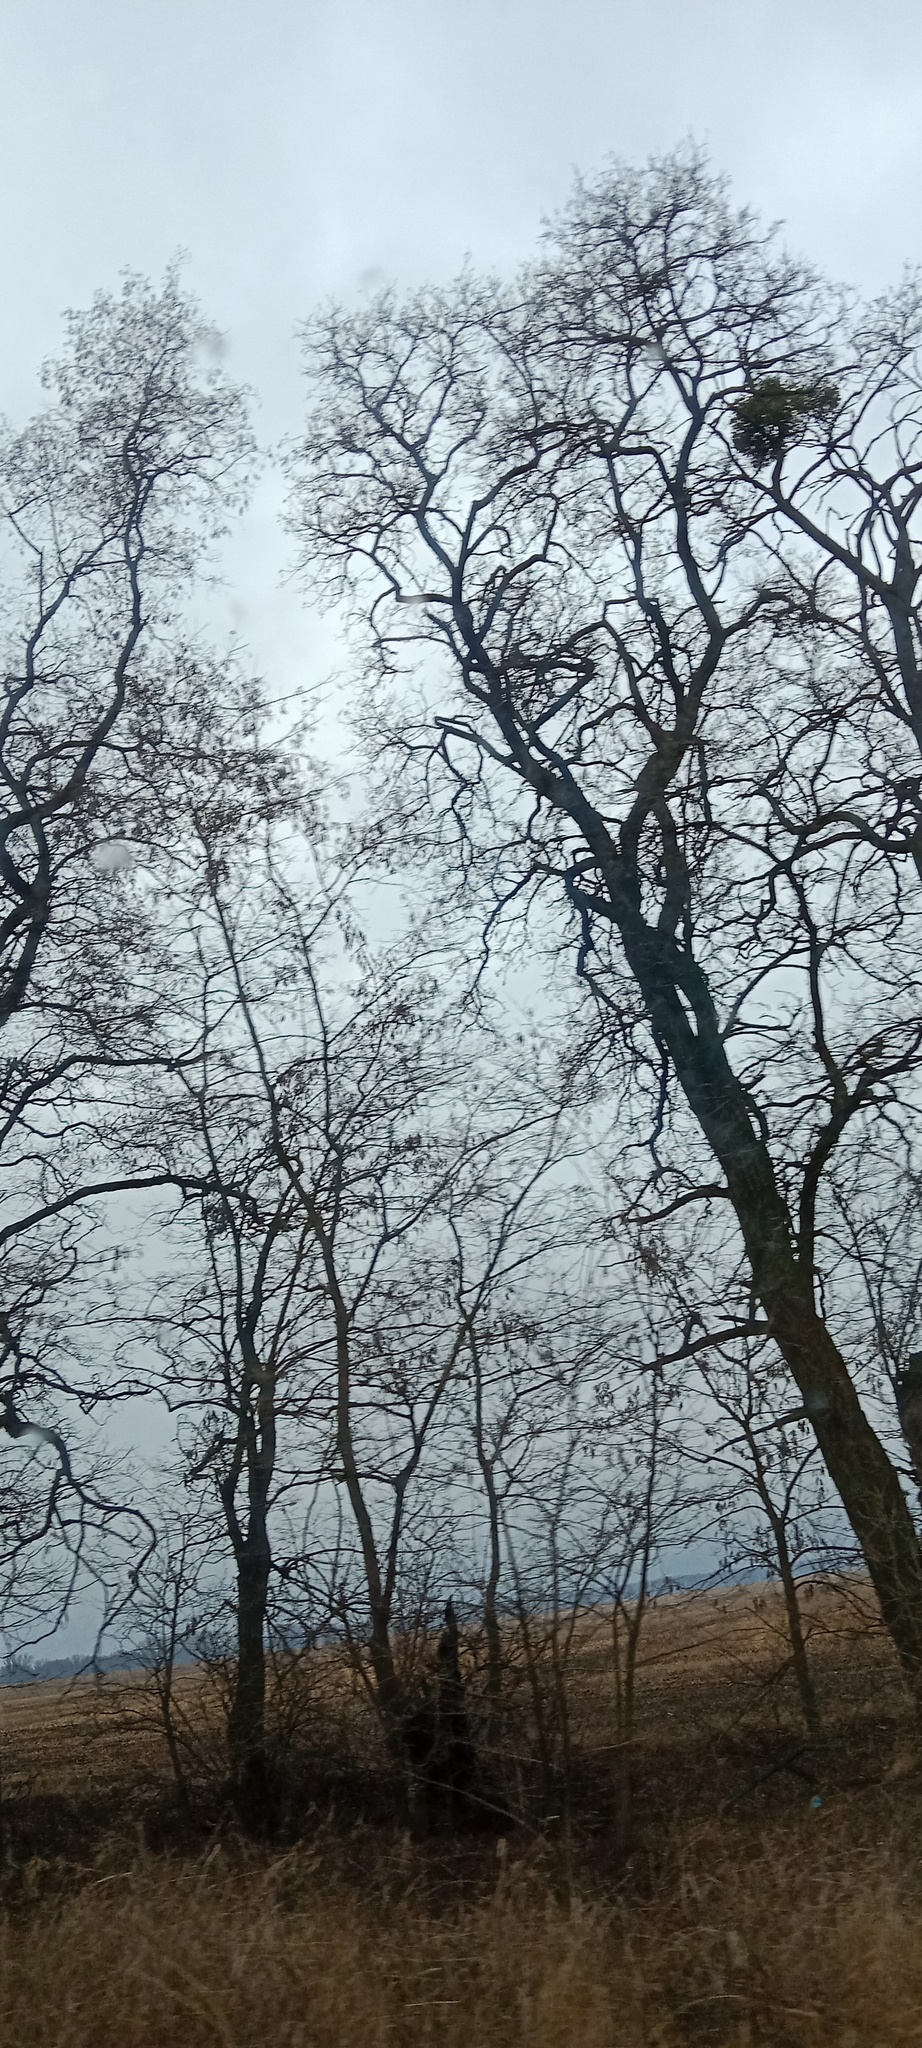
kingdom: Plantae
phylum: Tracheophyta
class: Magnoliopsida
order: Santalales
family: Viscaceae
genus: Viscum
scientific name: Viscum album
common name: Mistletoe
